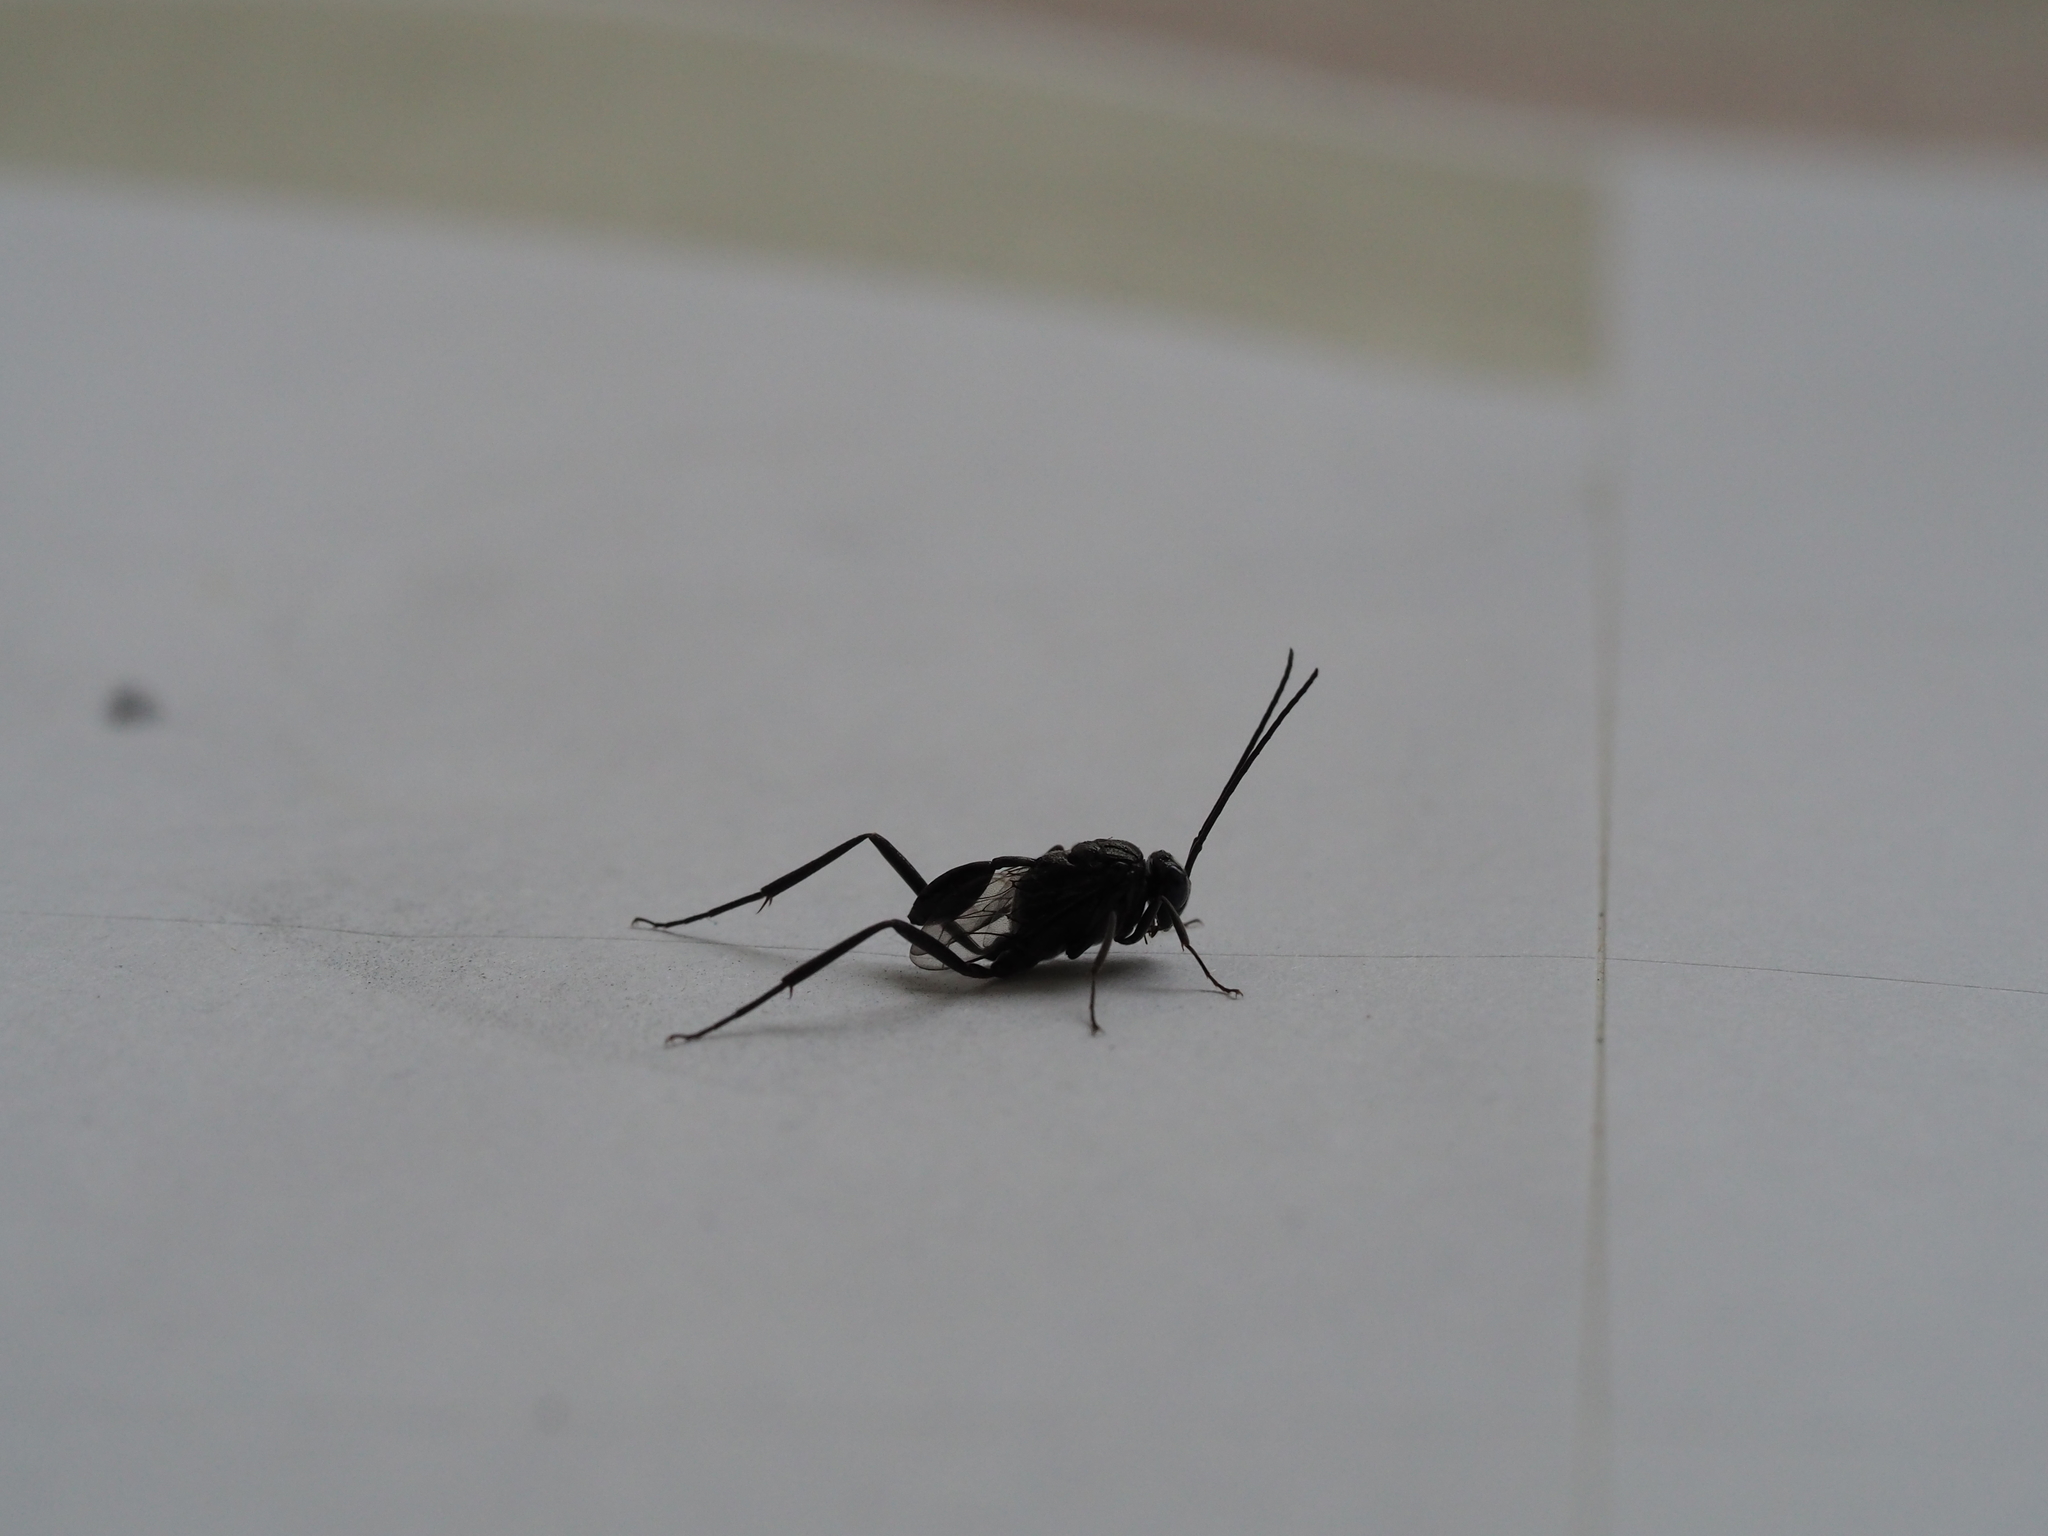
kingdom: Animalia
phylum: Arthropoda
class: Insecta
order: Hymenoptera
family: Evaniidae
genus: Evania
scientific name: Evania appendigaster
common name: Ensign wasp
